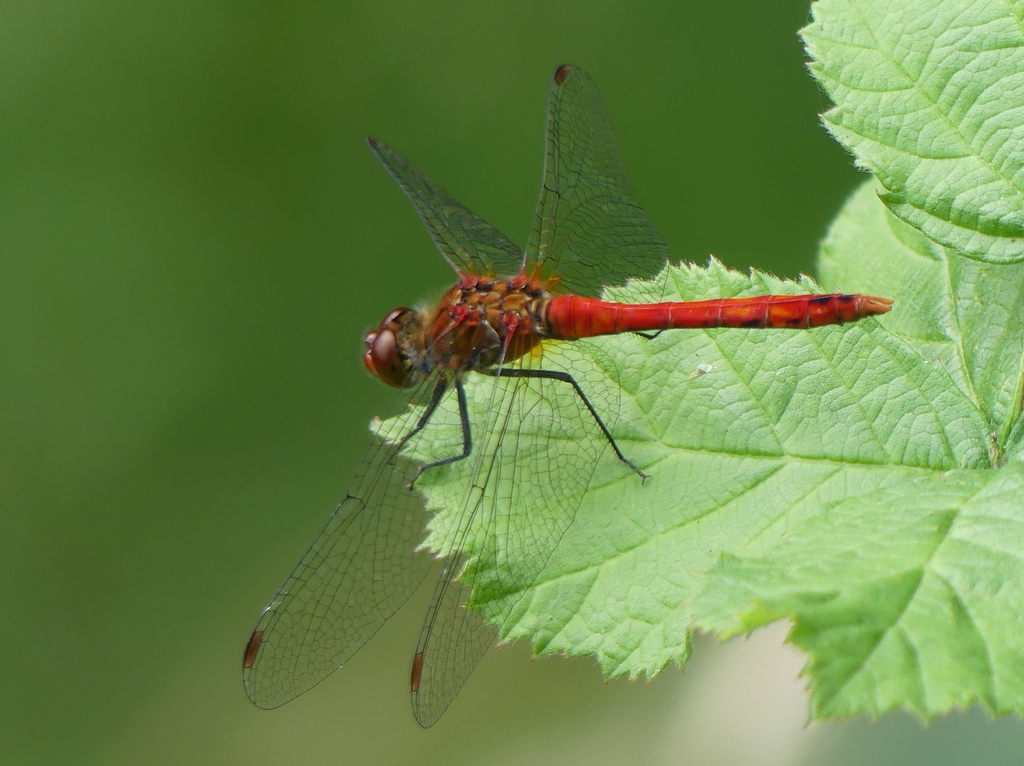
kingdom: Animalia
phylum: Arthropoda
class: Insecta
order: Odonata
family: Libellulidae
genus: Sympetrum
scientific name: Sympetrum sanguineum
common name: Ruddy darter
